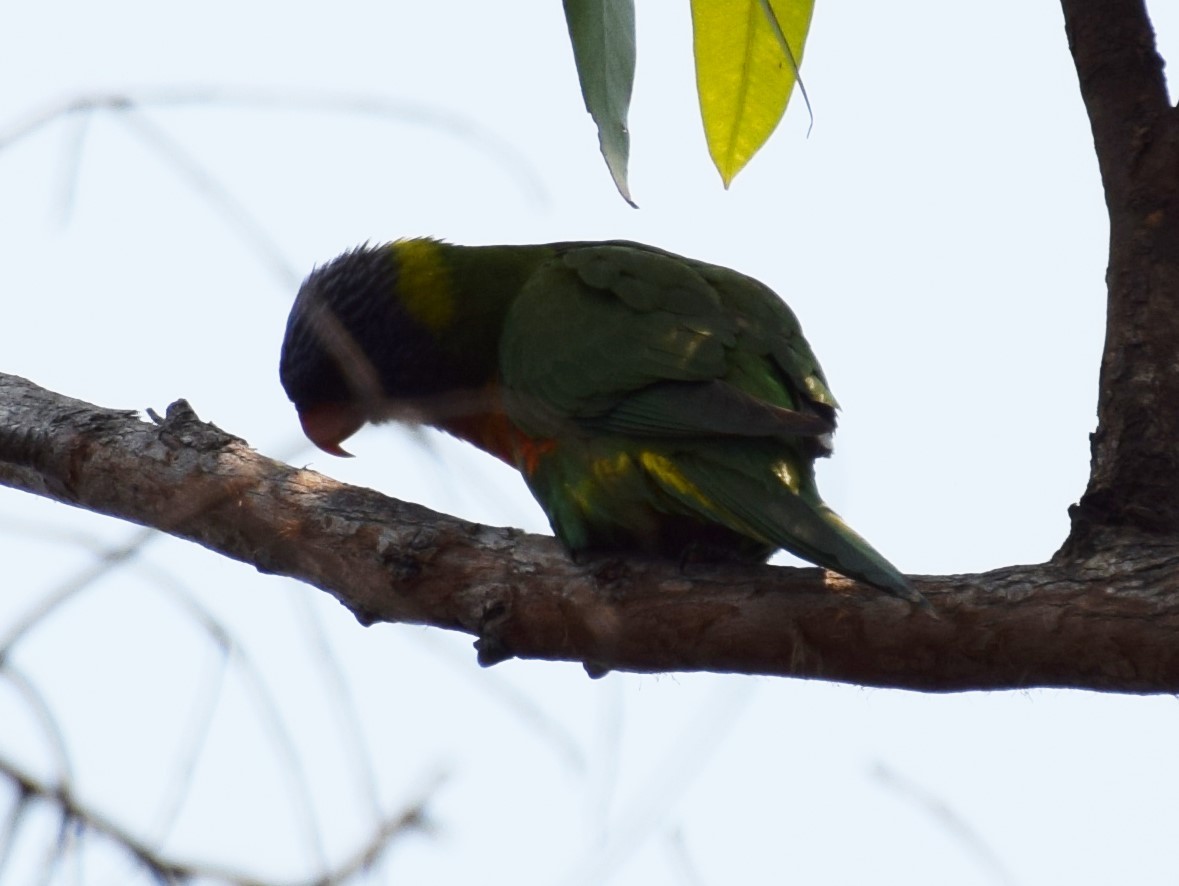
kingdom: Animalia
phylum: Chordata
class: Aves
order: Psittaciformes
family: Psittacidae
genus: Trichoglossus
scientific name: Trichoglossus haematodus
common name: Coconut lorikeet
